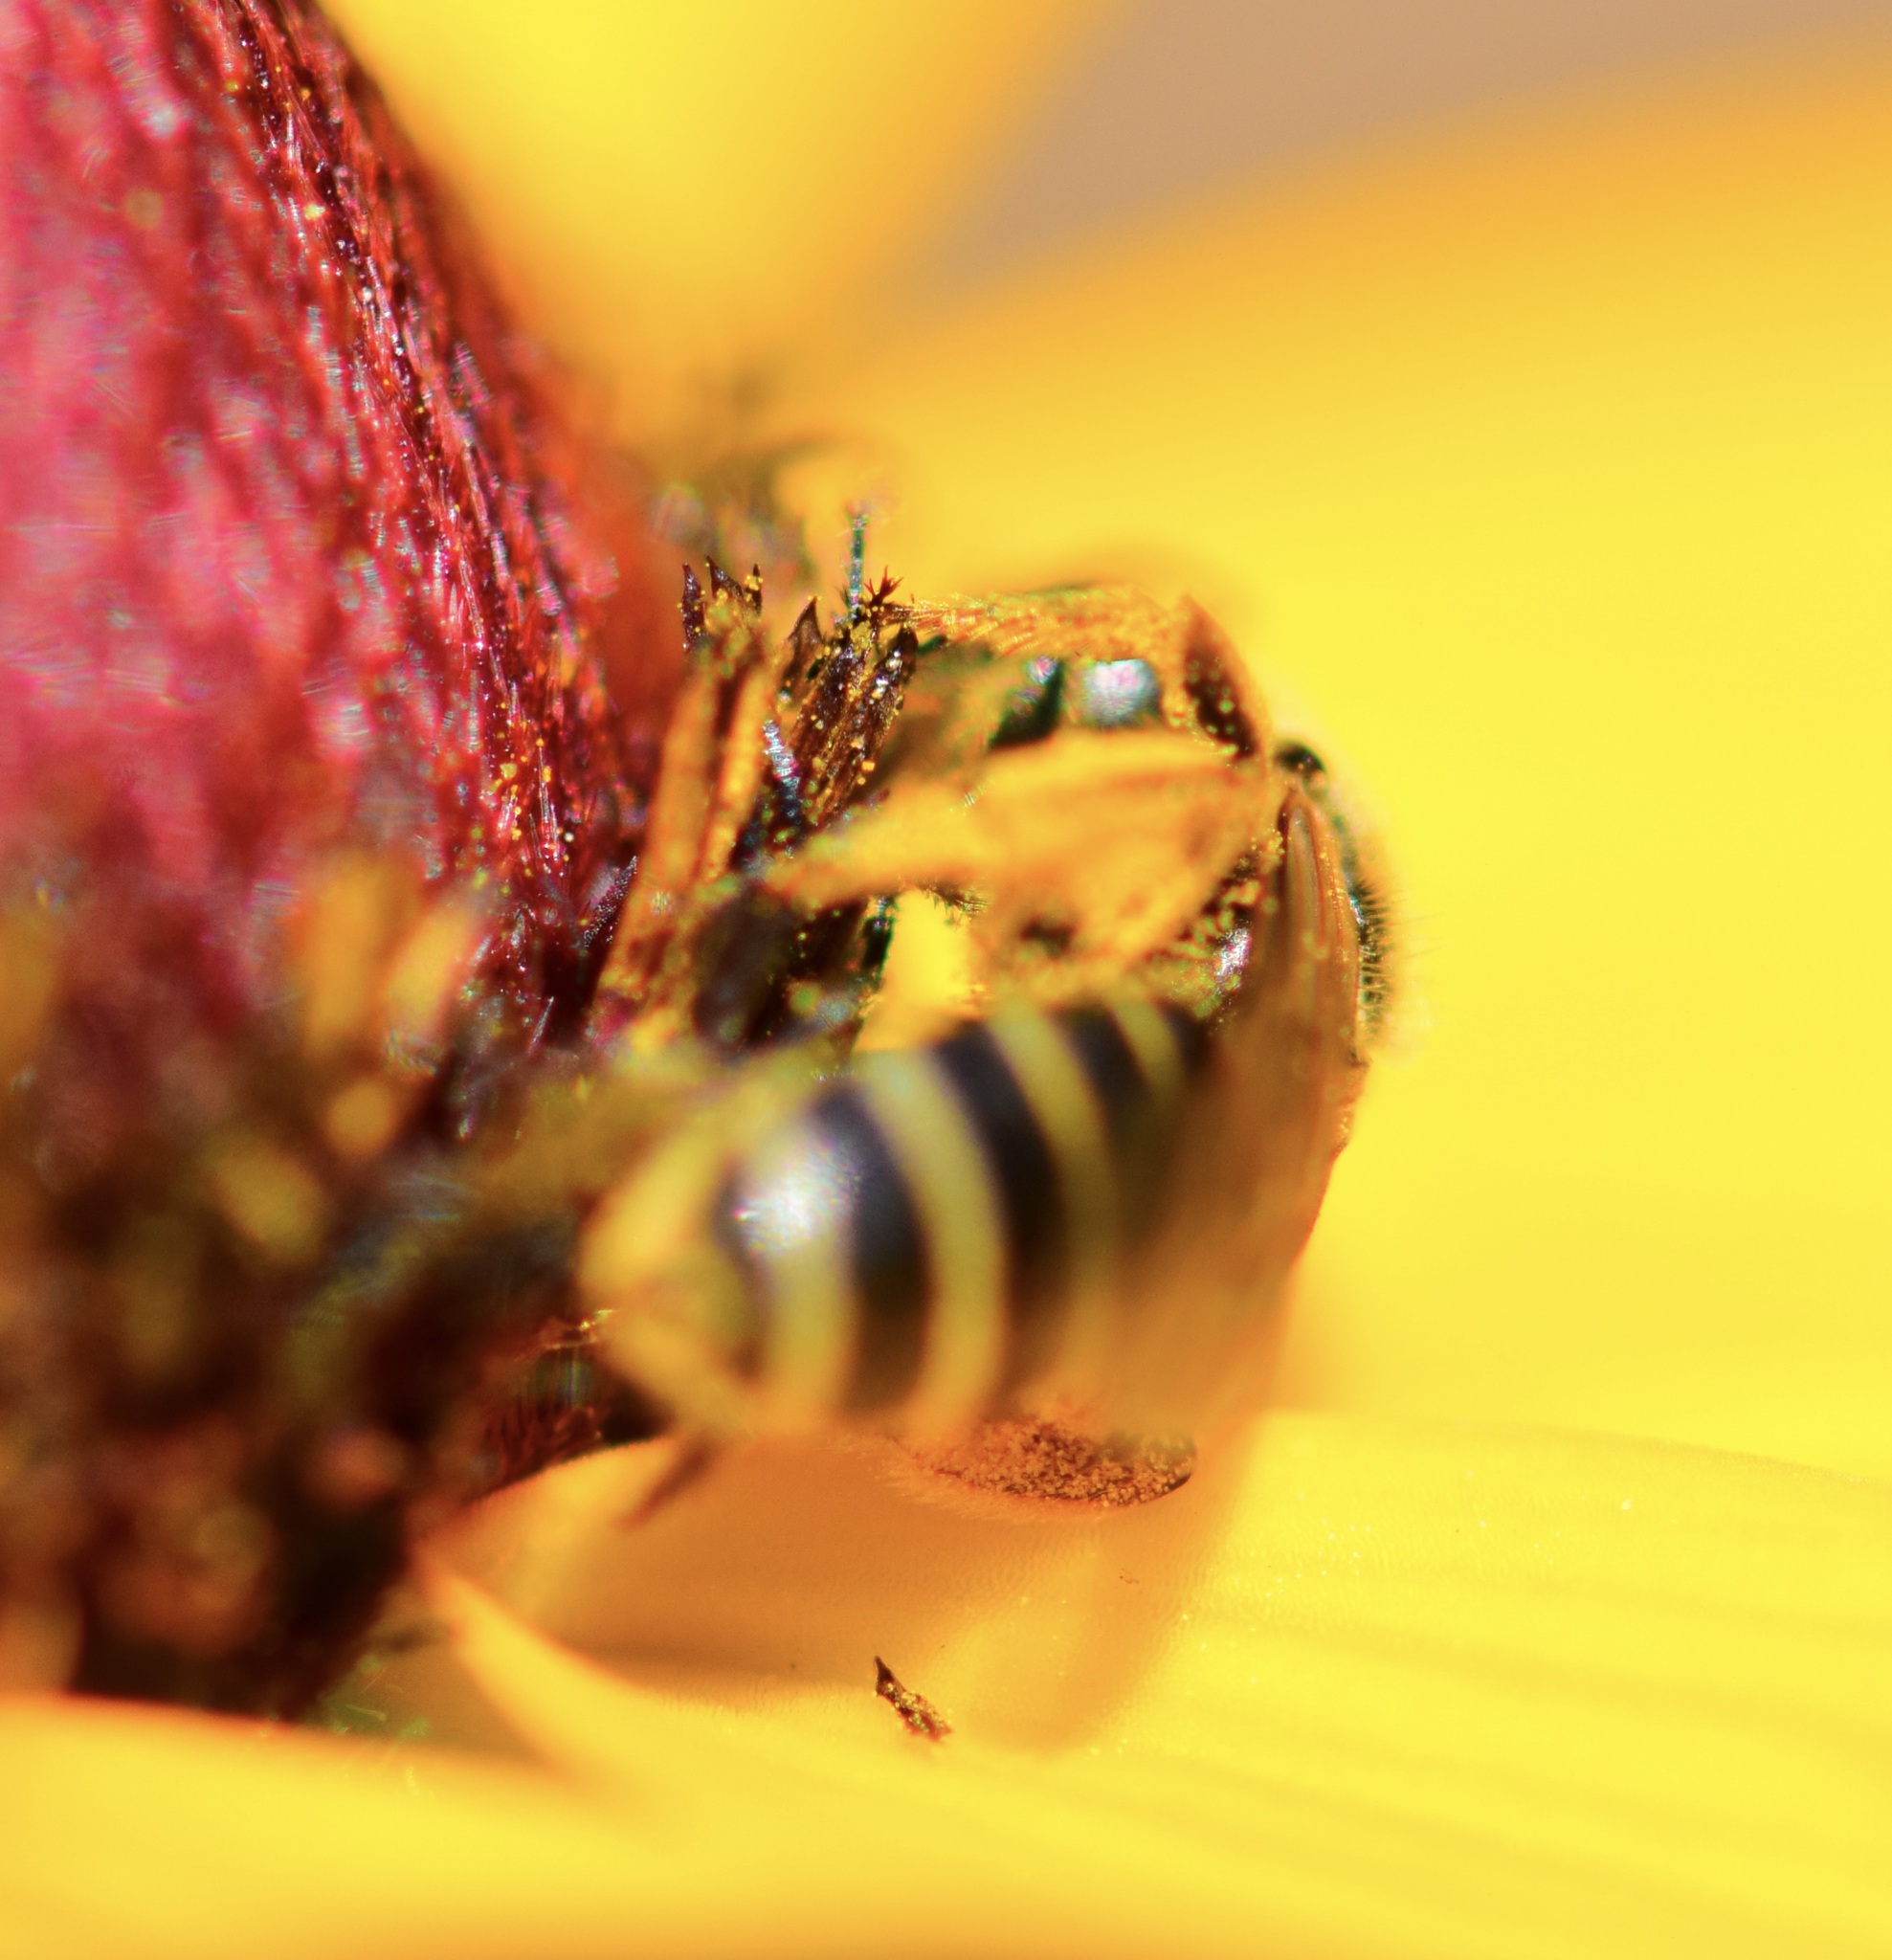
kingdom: Animalia
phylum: Arthropoda
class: Insecta
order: Hymenoptera
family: Halictidae
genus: Halictus
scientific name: Halictus ligatus
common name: Ligated furrow bee
